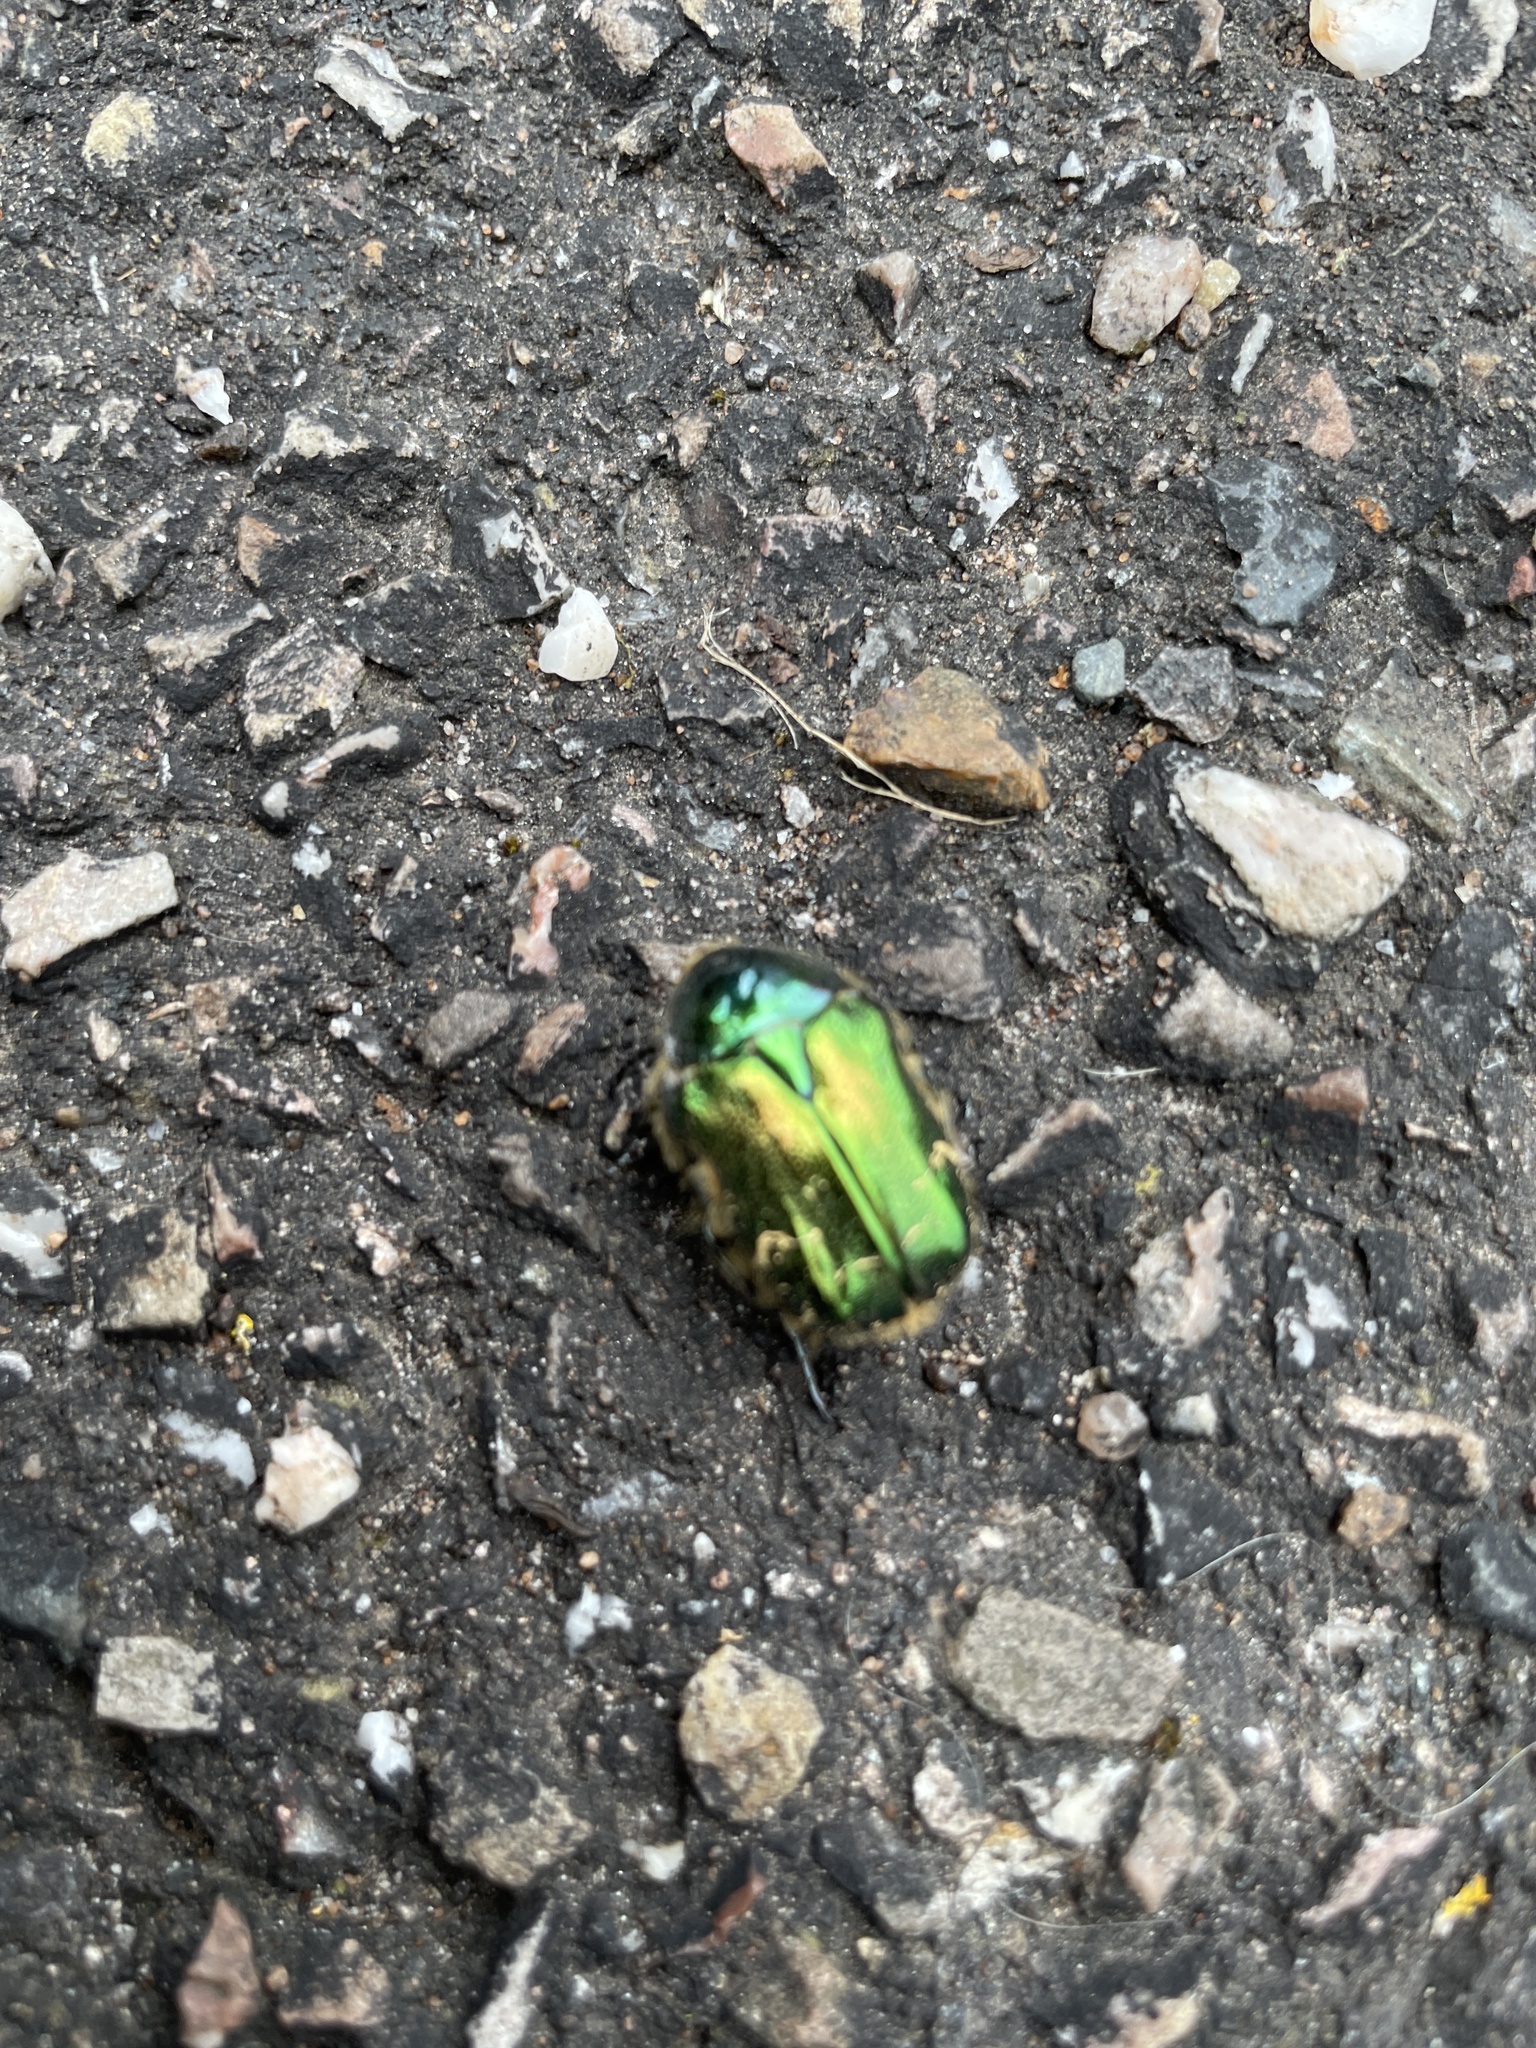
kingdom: Animalia
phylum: Arthropoda
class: Insecta
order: Coleoptera
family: Scarabaeidae
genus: Cetonia
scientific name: Cetonia aurata
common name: Rose chafer
